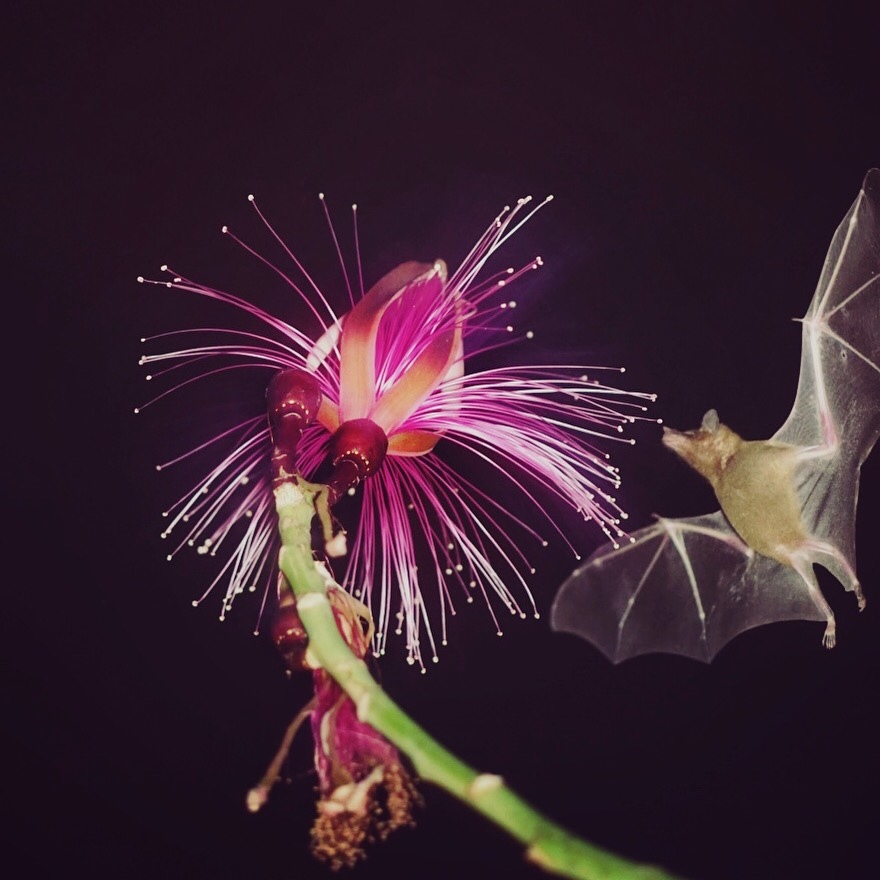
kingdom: Animalia
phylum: Chordata
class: Mammalia
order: Chiroptera
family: Phyllostomidae
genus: Leptonycteris
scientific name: Leptonycteris yerbabuenae
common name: Lesser long-nosed bat
